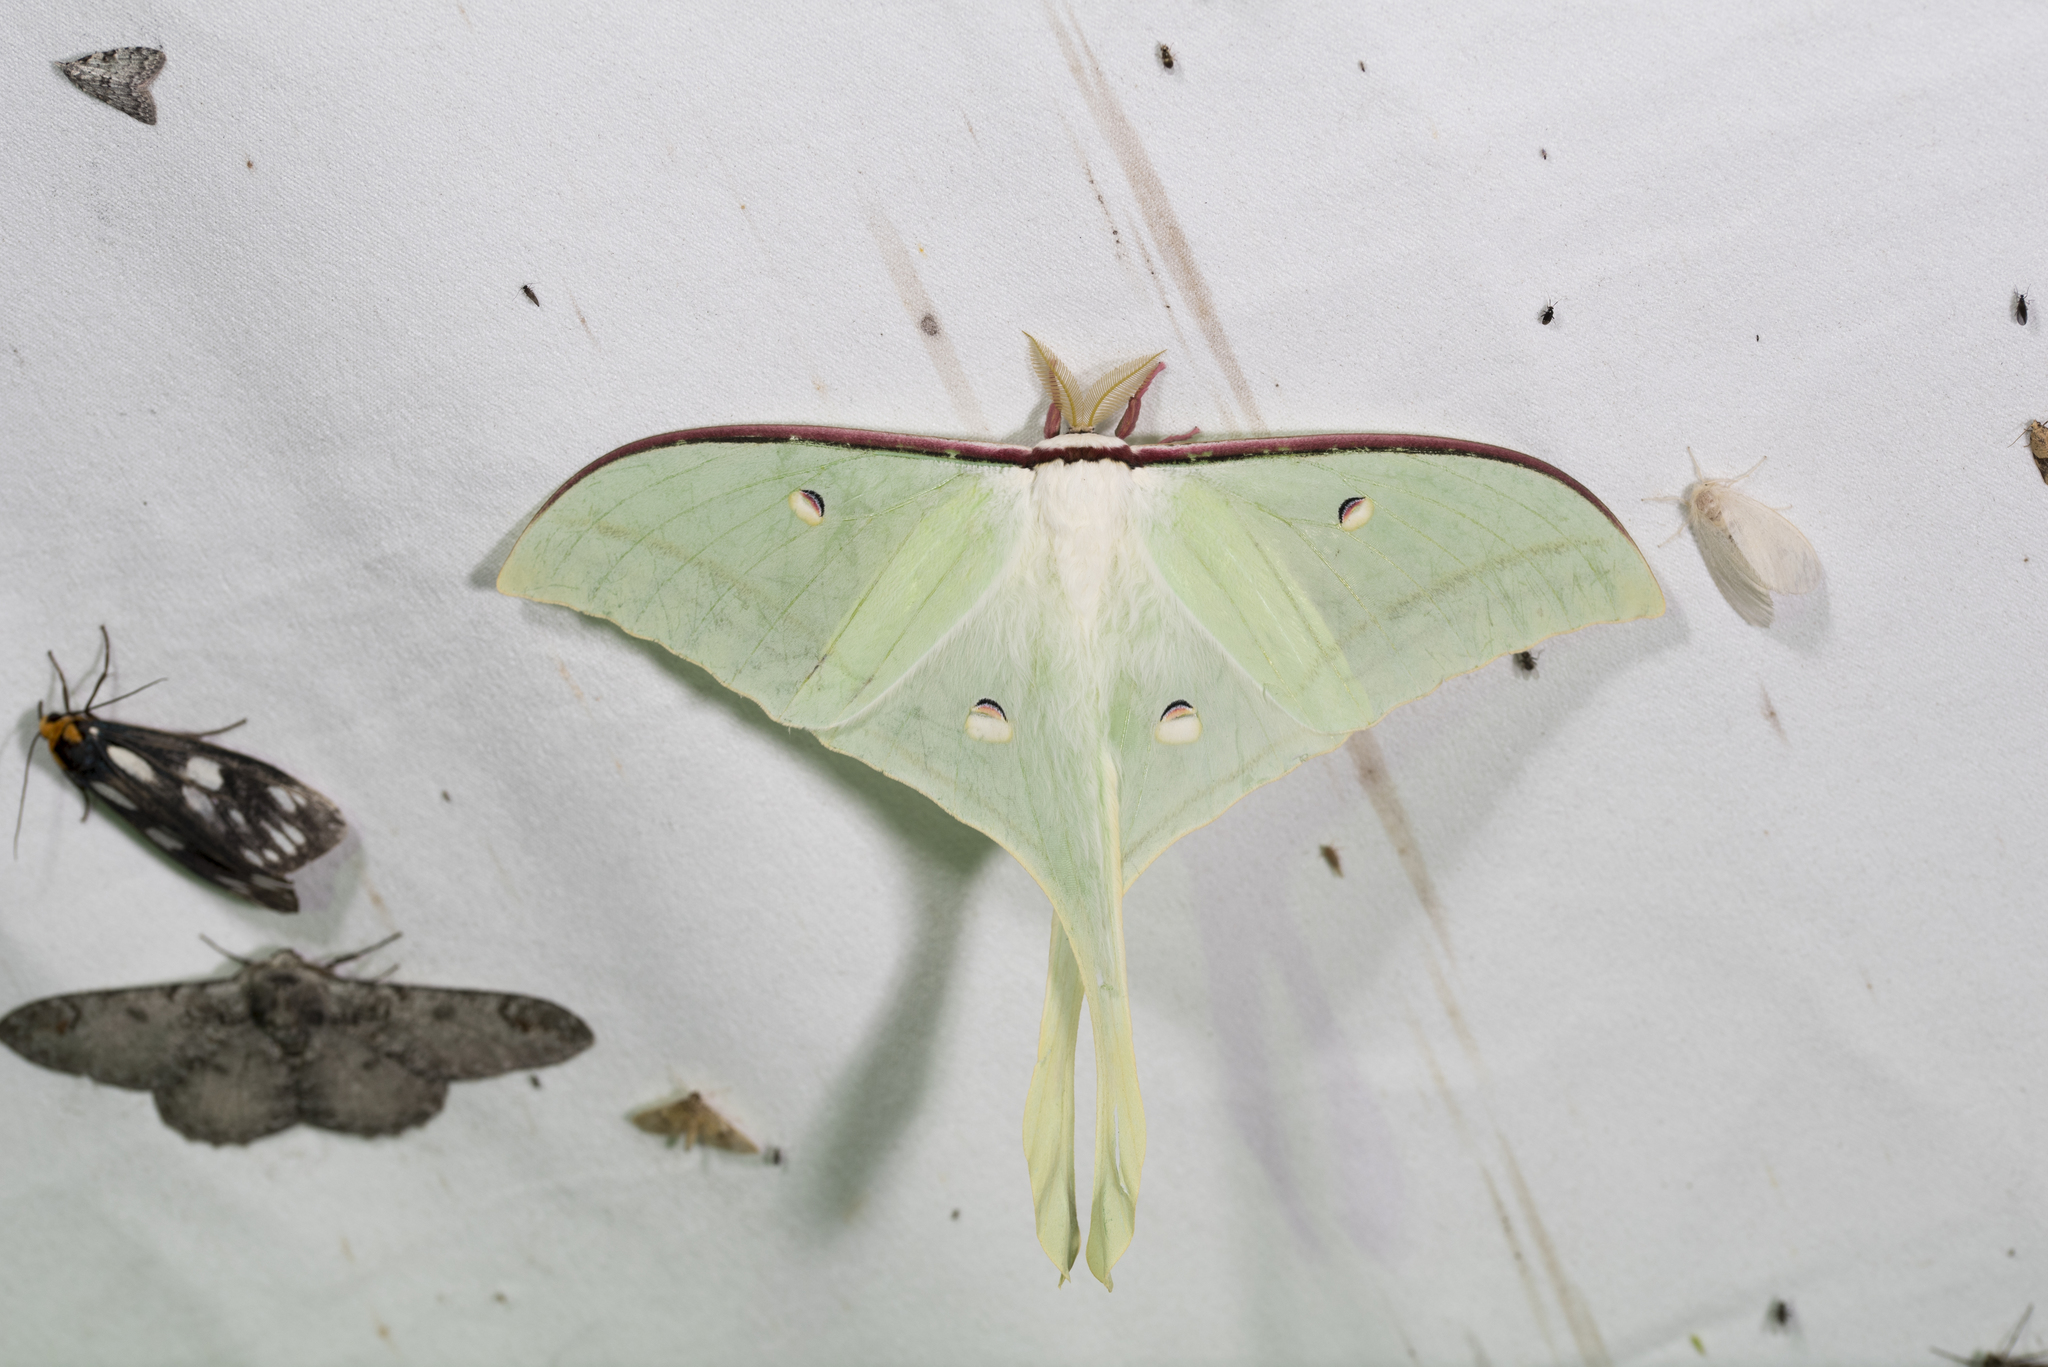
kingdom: Animalia
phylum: Arthropoda
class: Insecta
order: Lepidoptera
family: Saturniidae
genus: Actias
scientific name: Actias ningpoana
